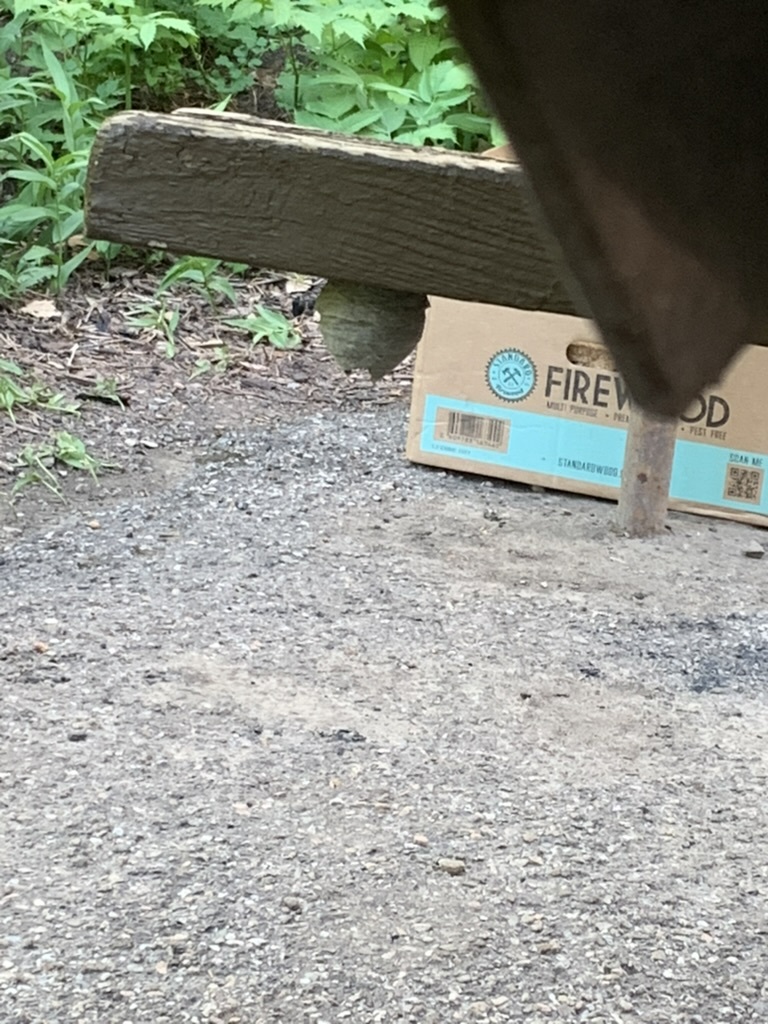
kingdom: Animalia
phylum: Arthropoda
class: Insecta
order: Hymenoptera
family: Vespidae
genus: Dolichovespula
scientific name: Dolichovespula
